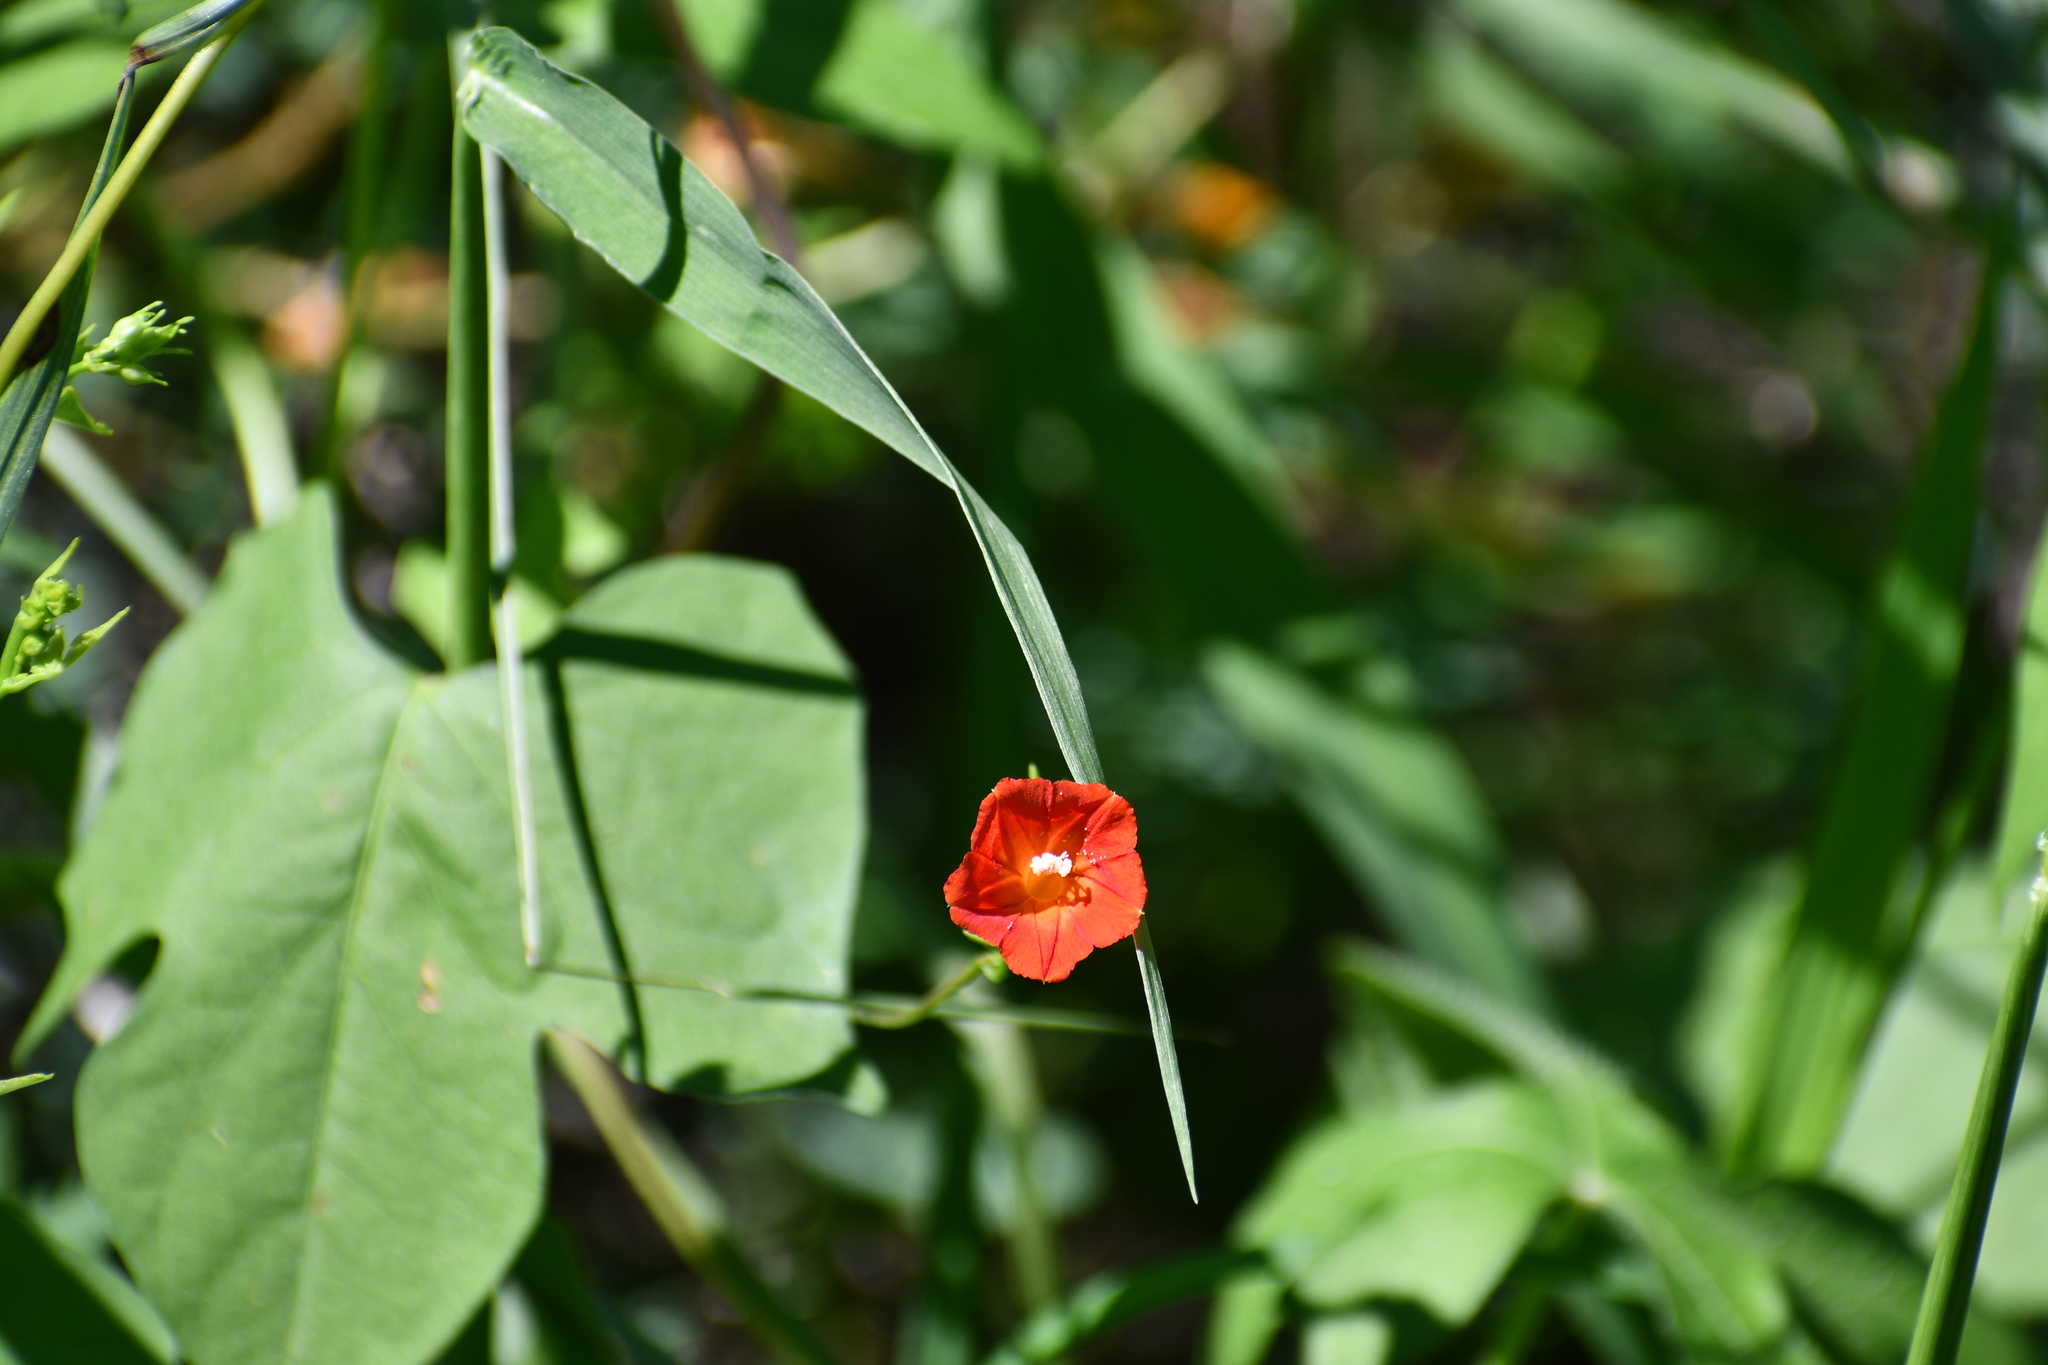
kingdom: Plantae
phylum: Tracheophyta
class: Magnoliopsida
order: Solanales
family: Convolvulaceae
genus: Ipomoea
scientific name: Ipomoea cristulata
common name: Trans-pecos morning-glory
